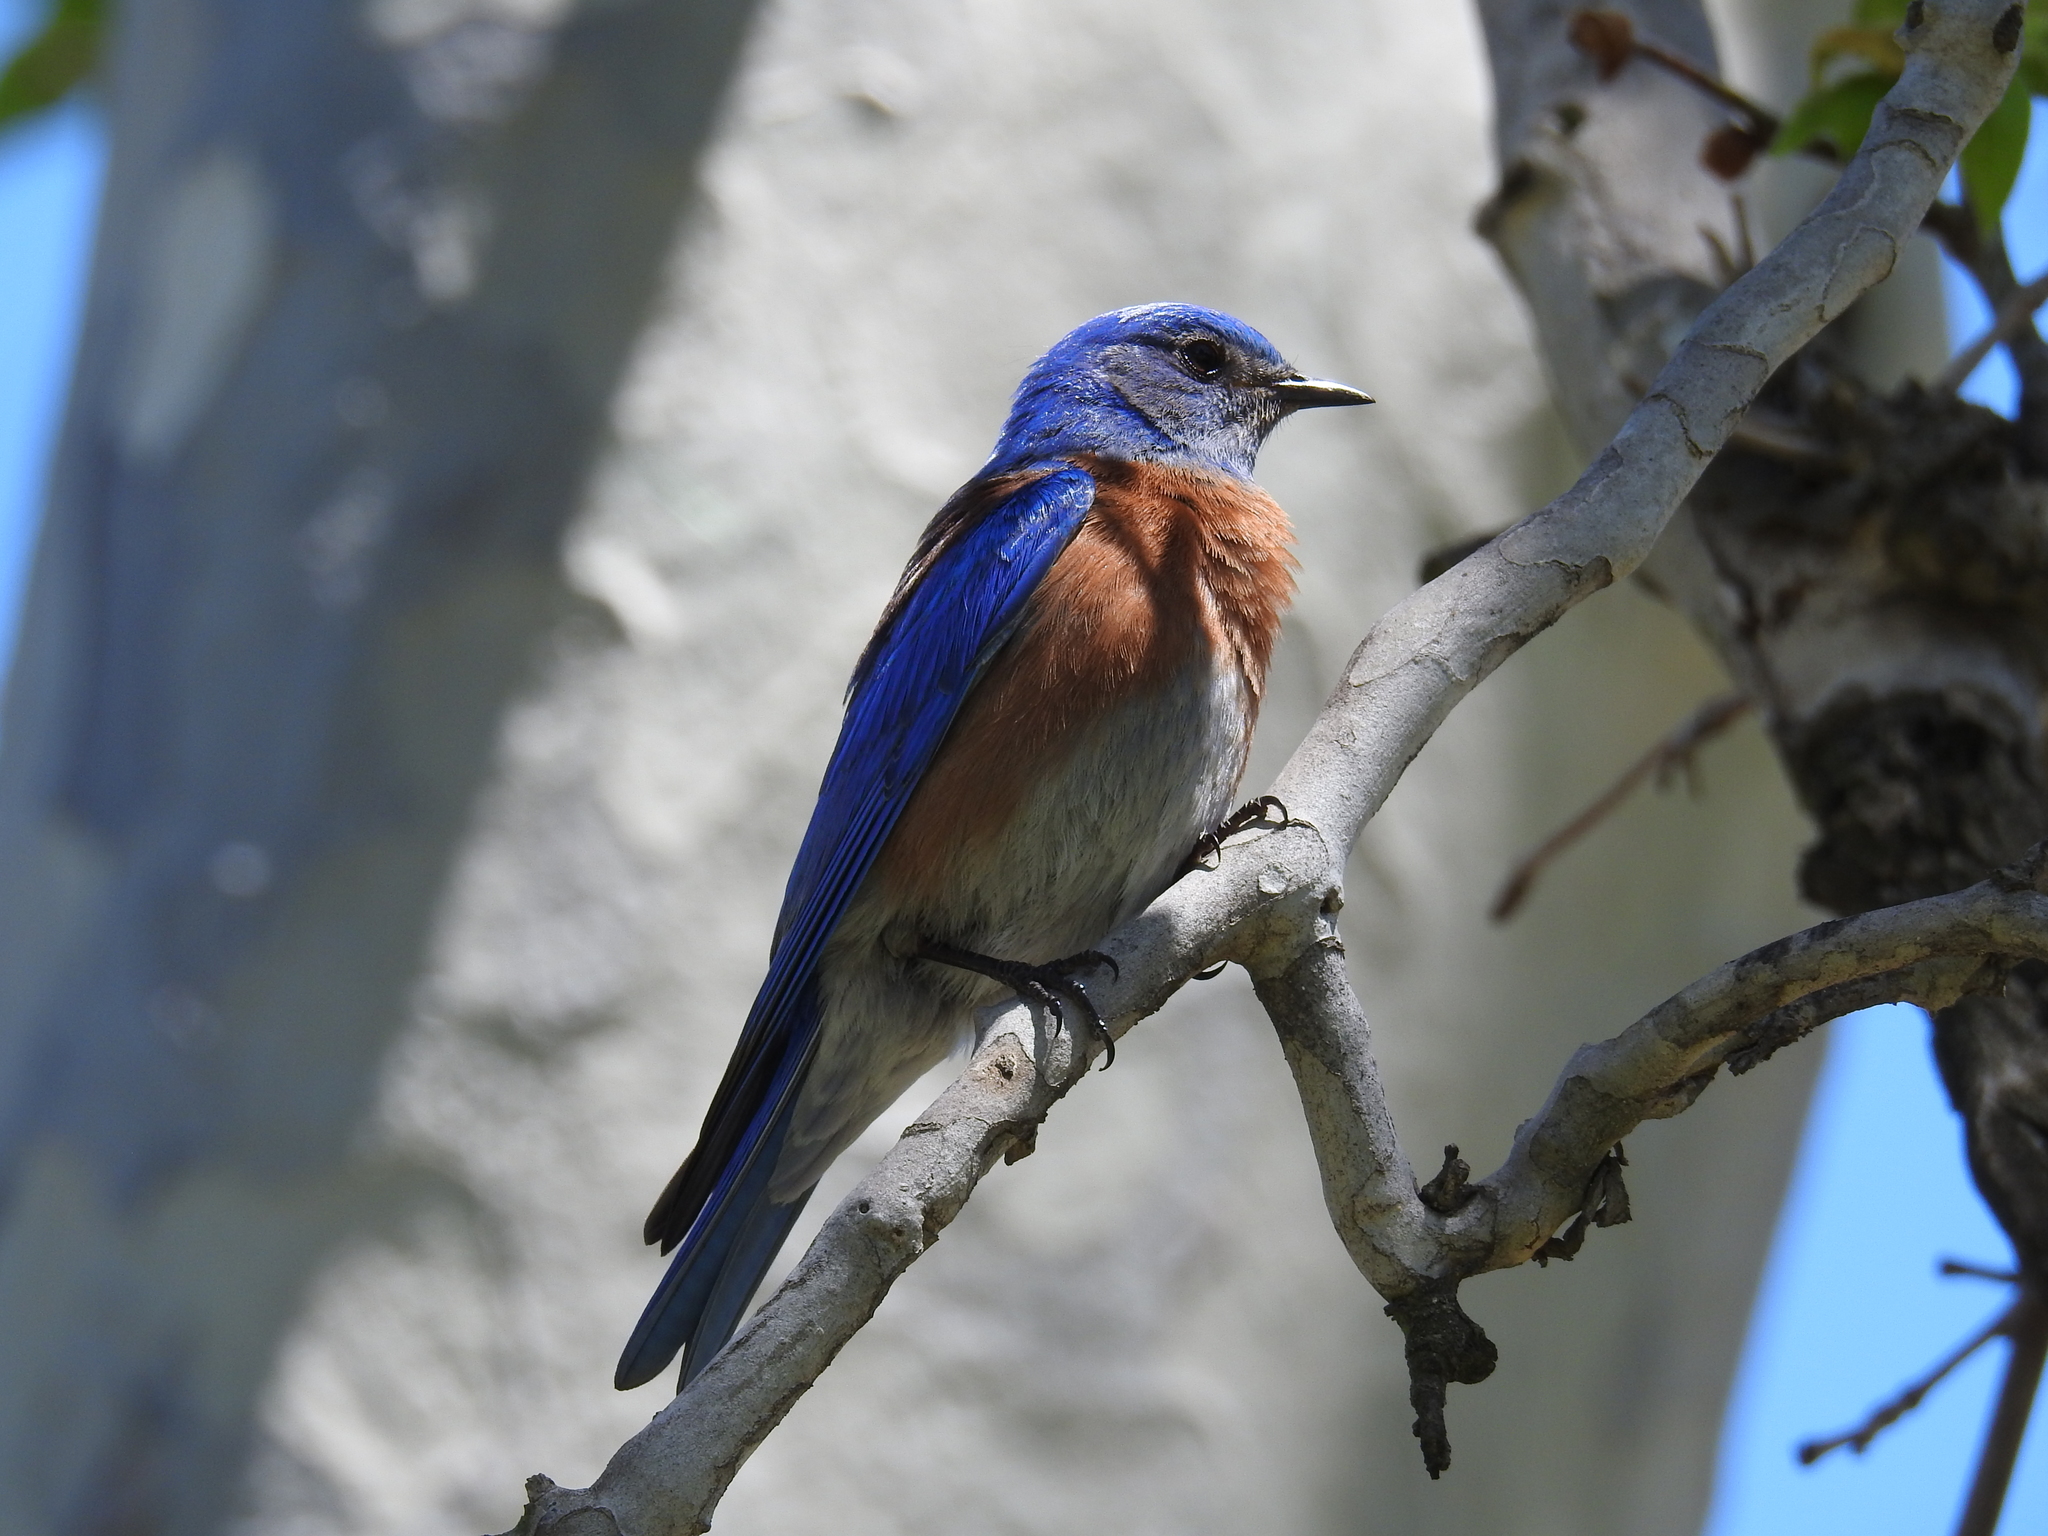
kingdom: Animalia
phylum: Chordata
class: Aves
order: Passeriformes
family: Turdidae
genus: Sialia
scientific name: Sialia mexicana
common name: Western bluebird
